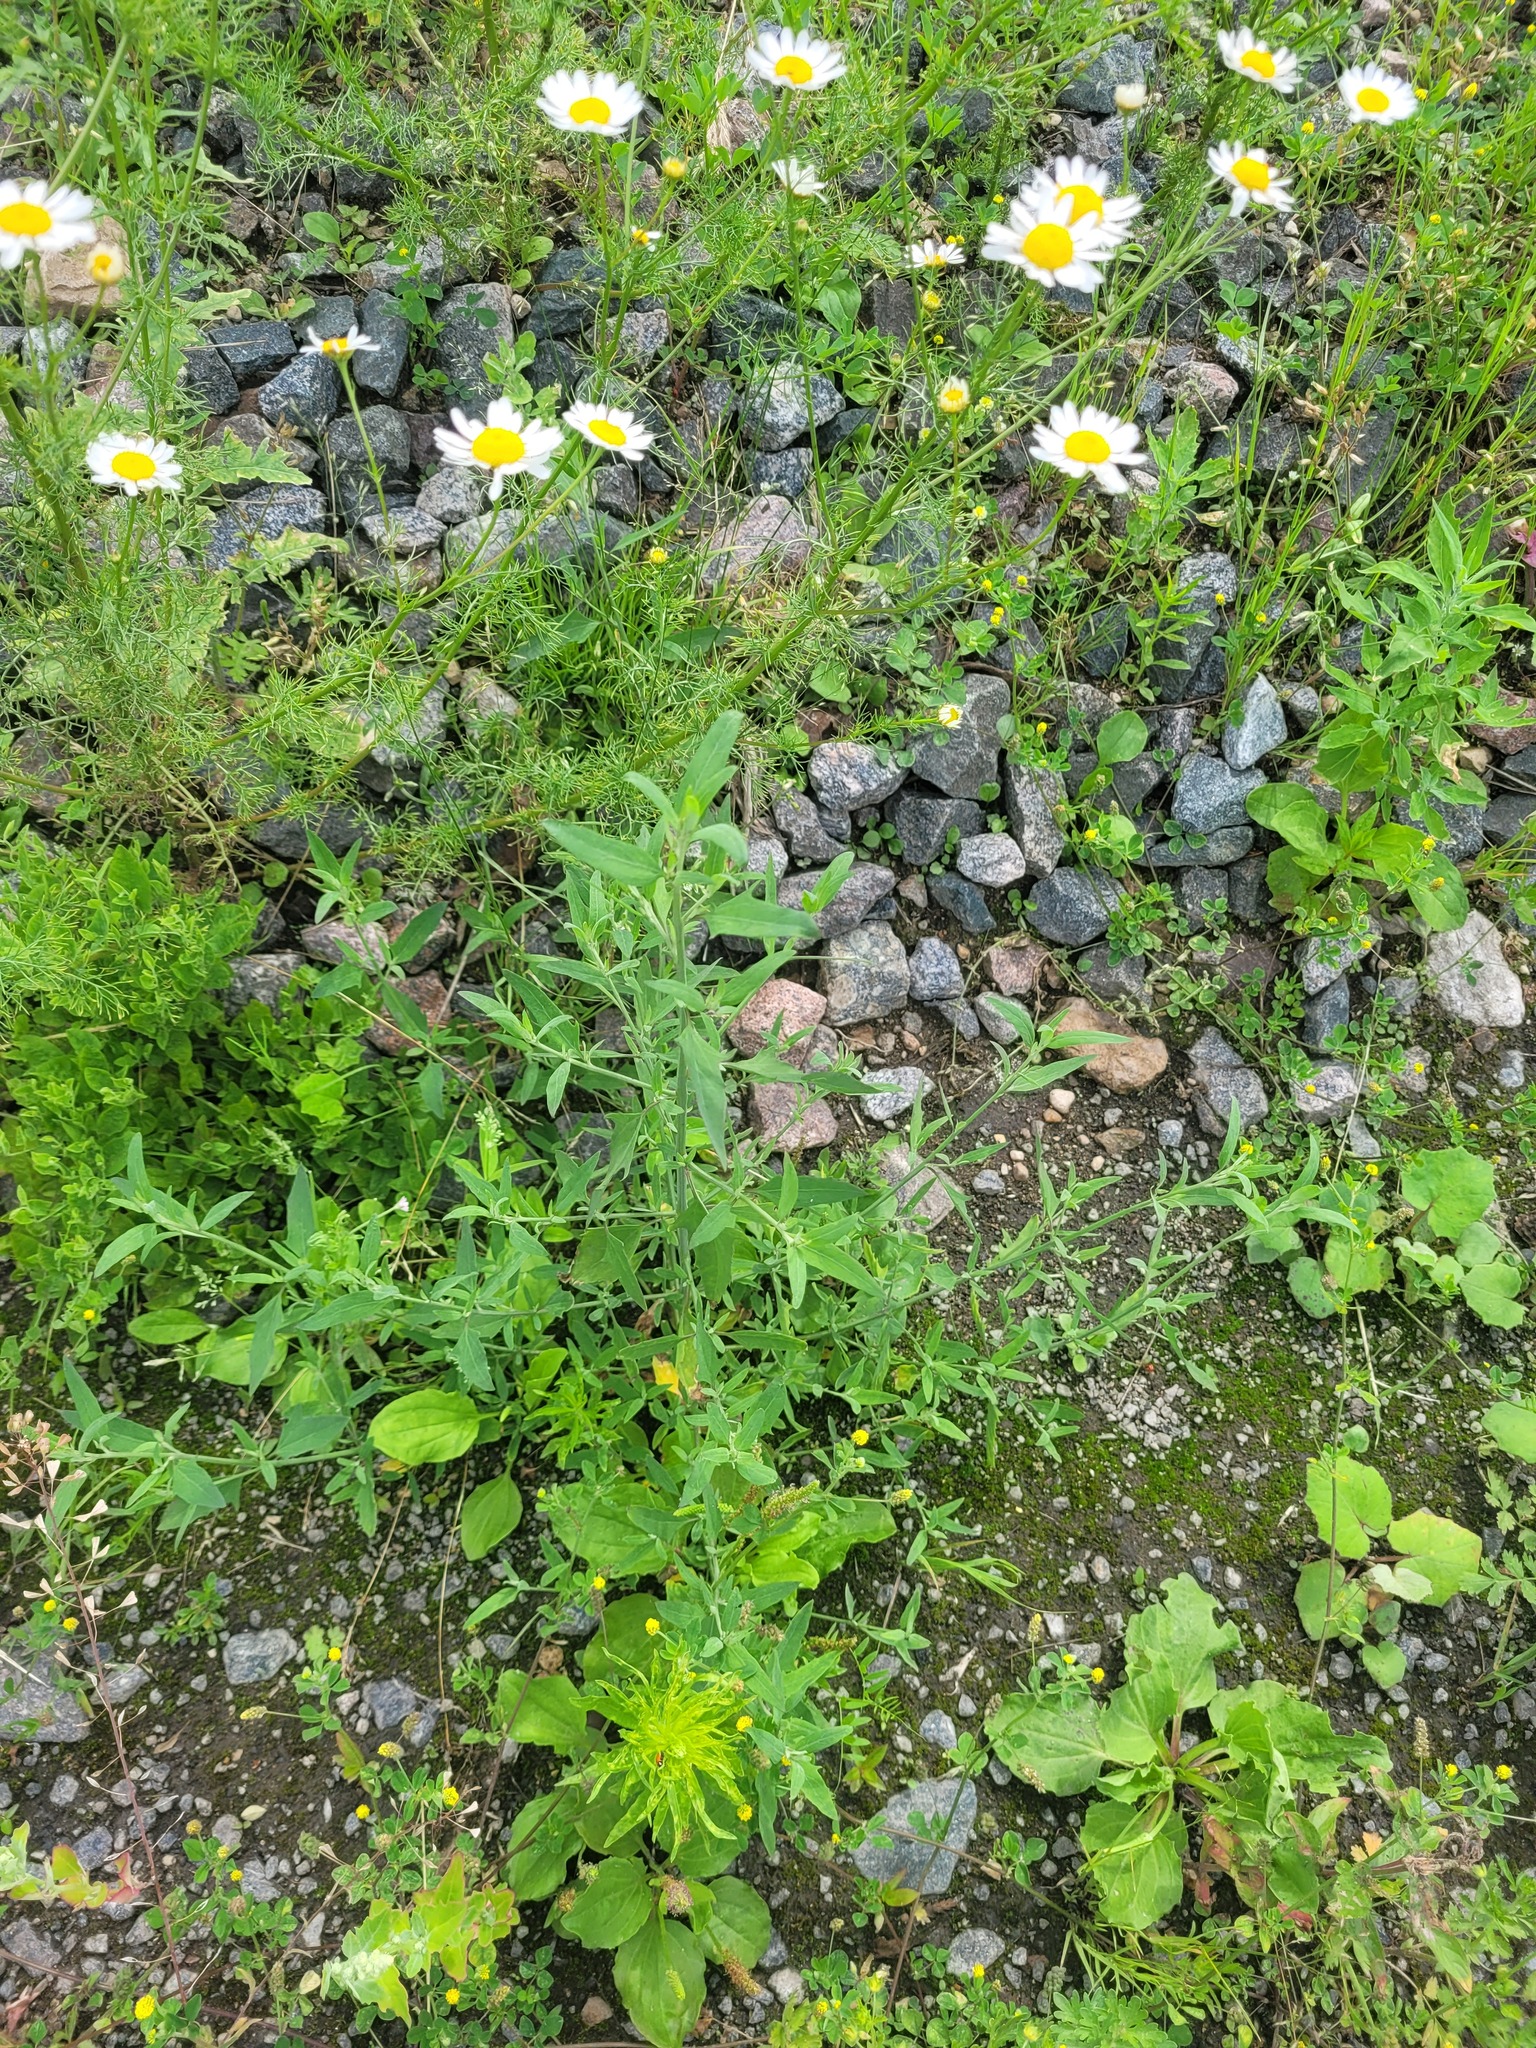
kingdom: Plantae
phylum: Tracheophyta
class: Magnoliopsida
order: Caryophyllales
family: Amaranthaceae
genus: Atriplex
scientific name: Atriplex patula
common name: Common orache
